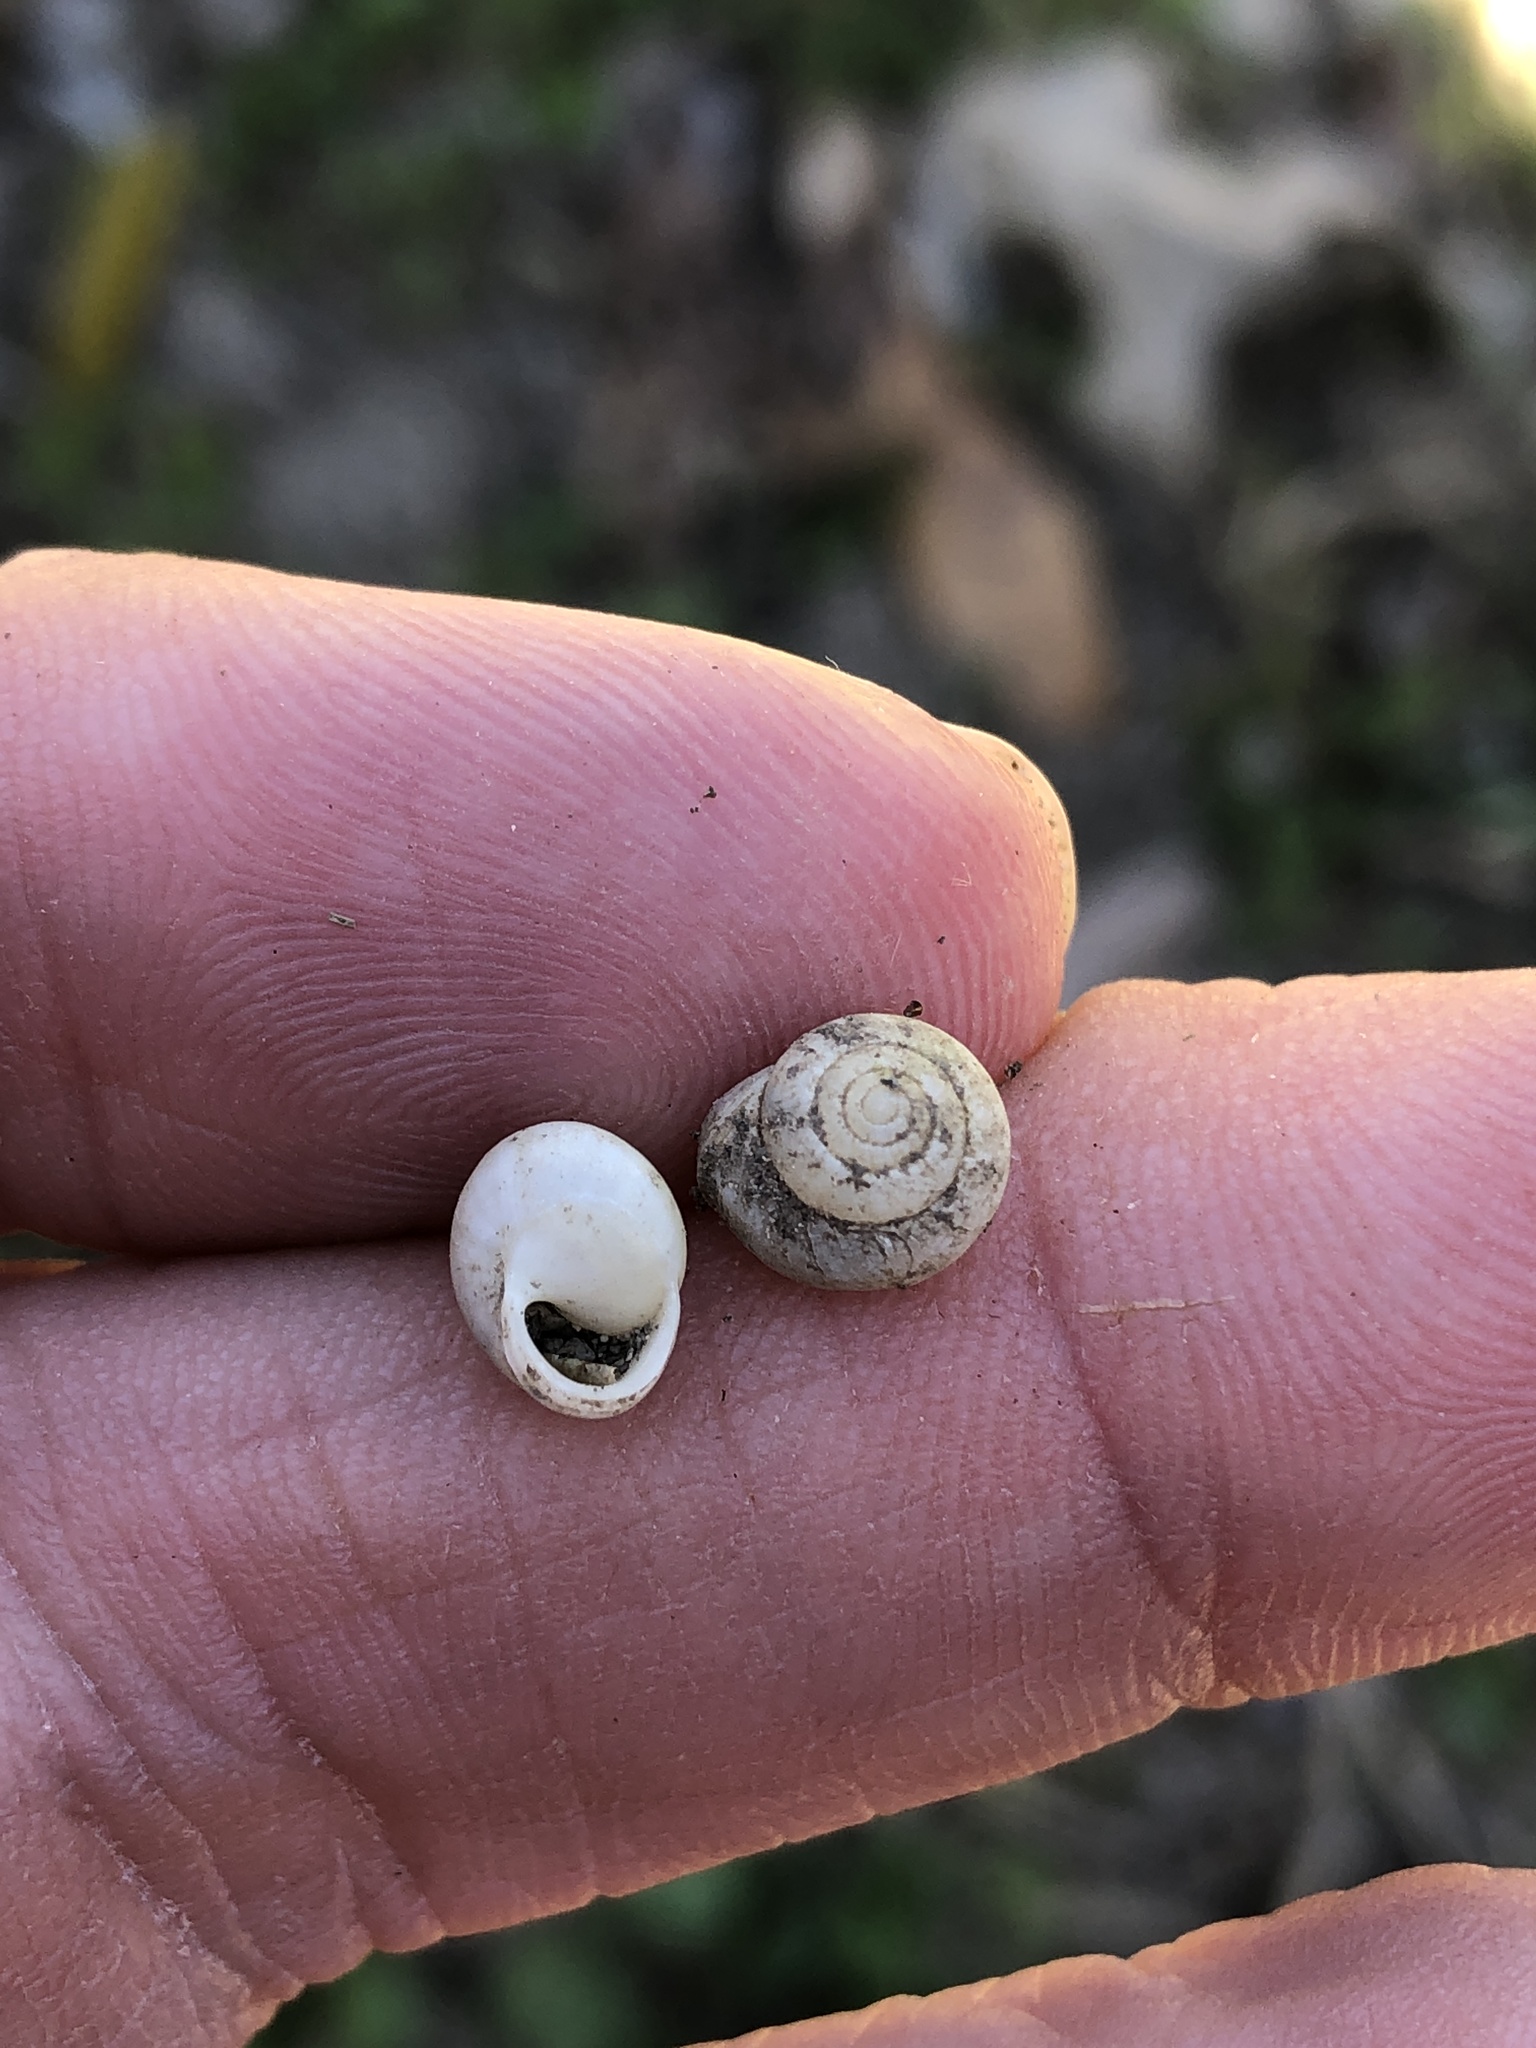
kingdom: Animalia
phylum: Mollusca
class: Gastropoda
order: Cycloneritida
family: Helicinidae
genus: Helicina
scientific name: Helicina orbiculata
